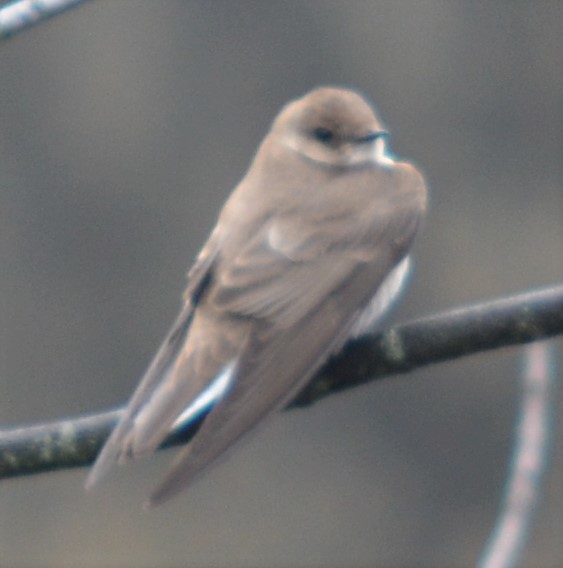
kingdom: Animalia
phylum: Chordata
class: Aves
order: Passeriformes
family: Hirundinidae
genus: Stelgidopteryx
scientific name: Stelgidopteryx serripennis
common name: Northern rough-winged swallow
